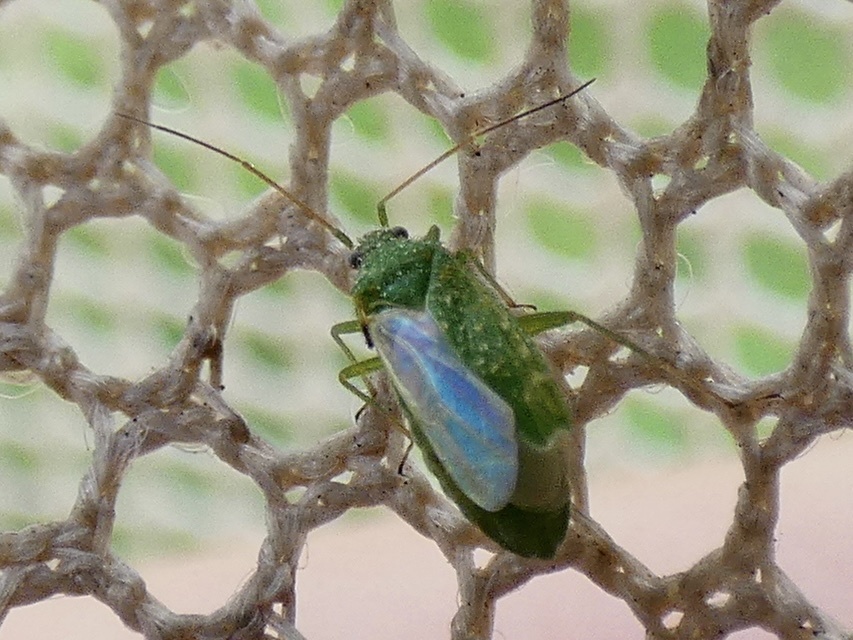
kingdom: Animalia
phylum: Arthropoda
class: Insecta
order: Hemiptera
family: Miridae
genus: Orthotylus
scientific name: Orthotylus flavosparsus
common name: Plant bug
